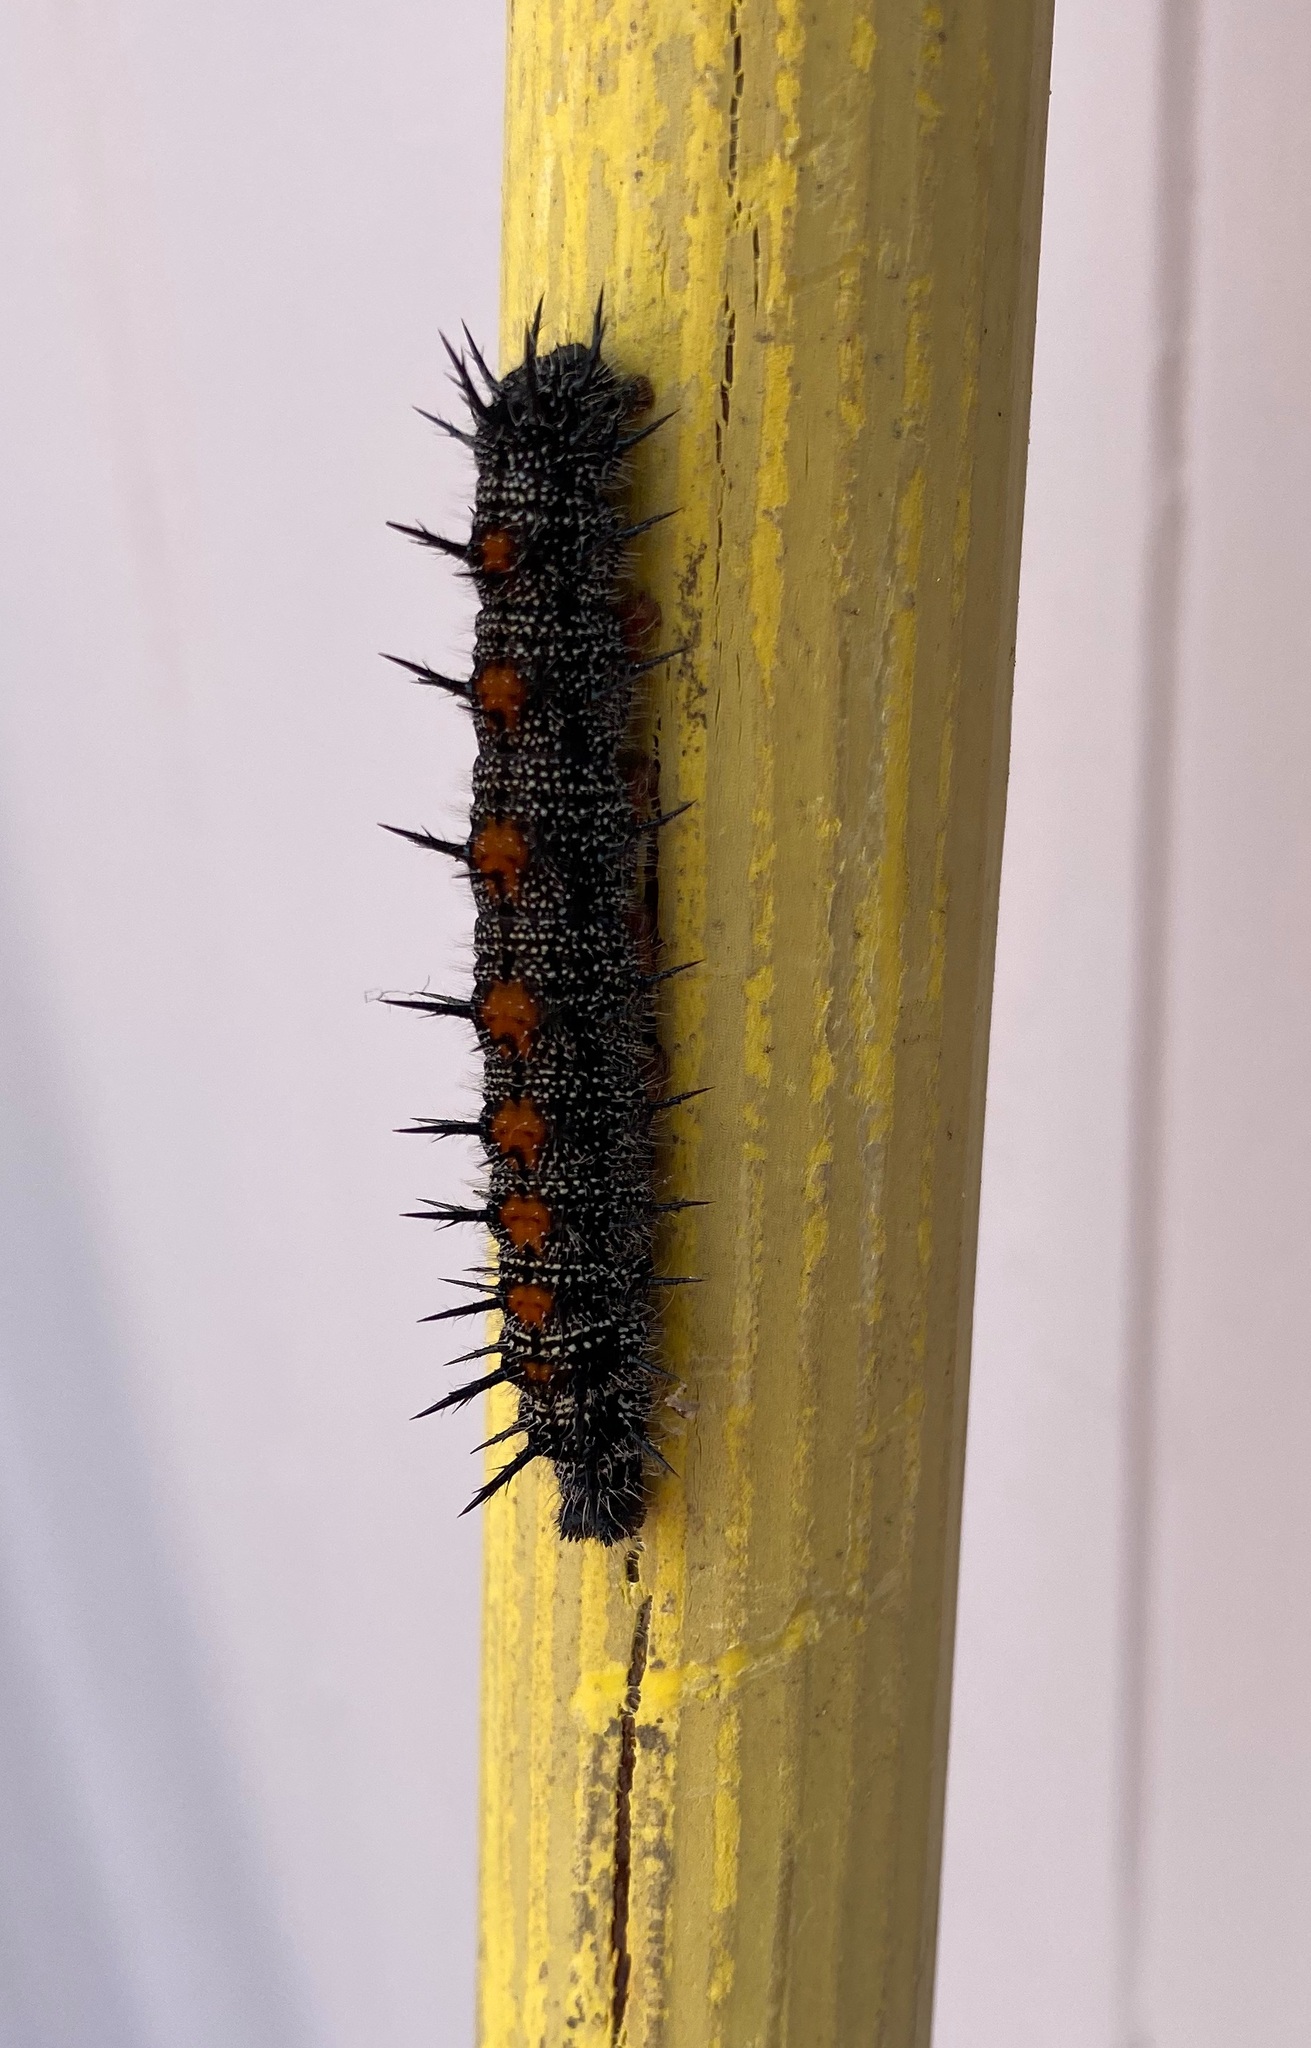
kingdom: Animalia
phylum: Arthropoda
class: Insecta
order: Lepidoptera
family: Nymphalidae
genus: Nymphalis
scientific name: Nymphalis antiopa
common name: Camberwell beauty
